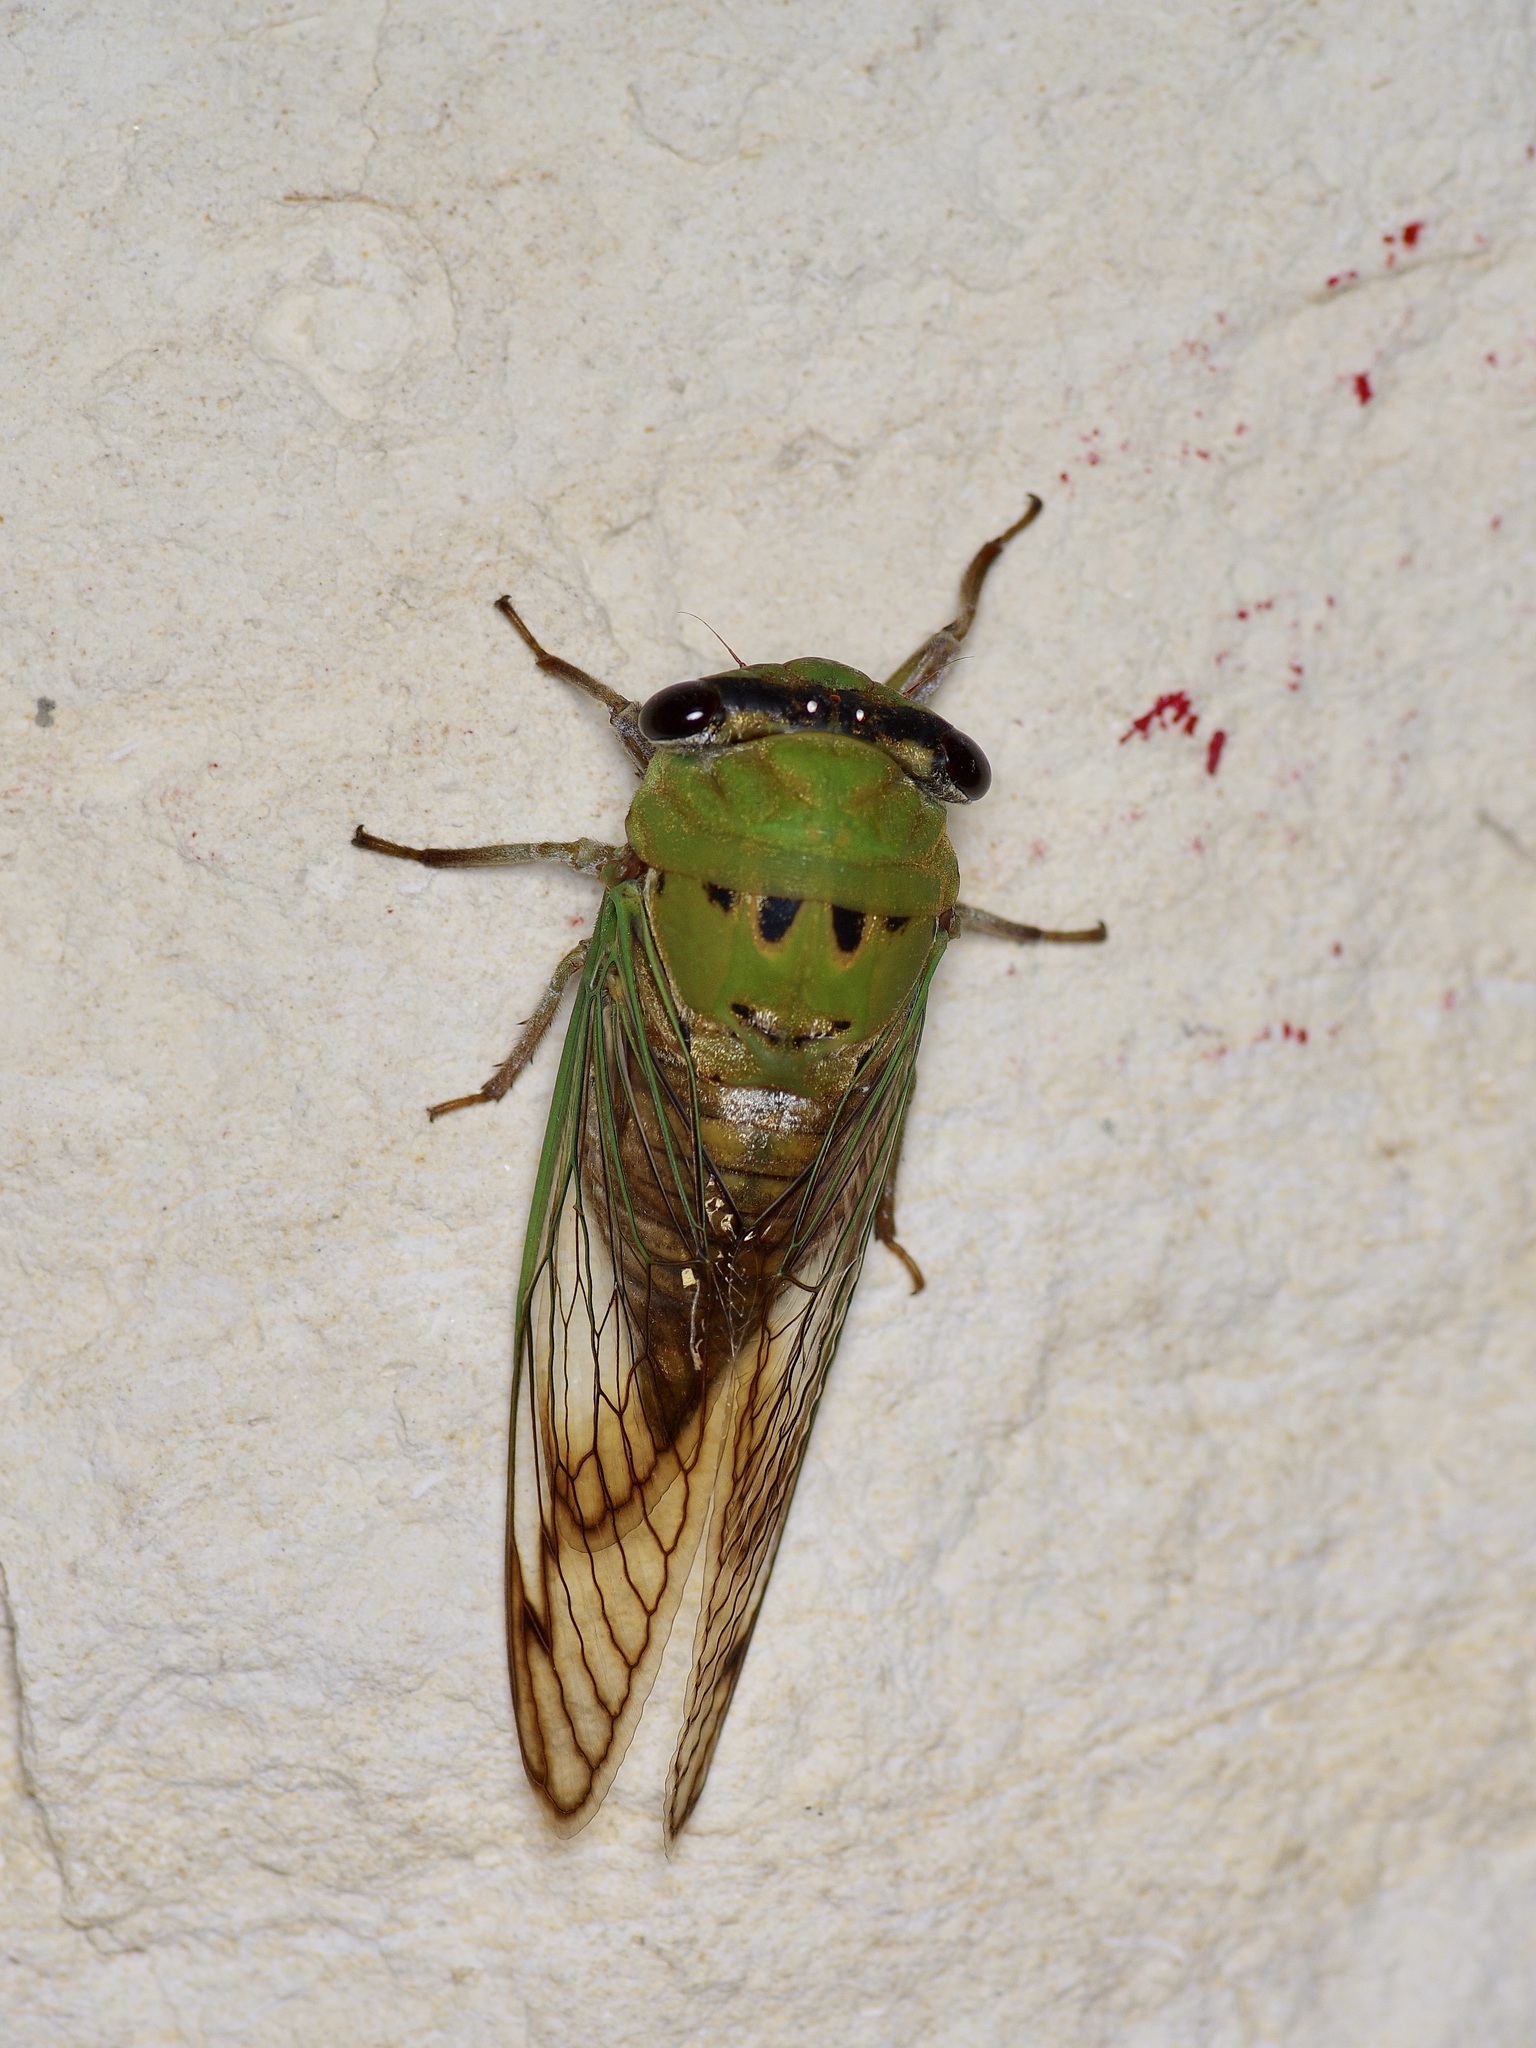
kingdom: Animalia
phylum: Arthropoda
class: Insecta
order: Hemiptera
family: Cicadidae
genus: Neotibicen
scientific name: Neotibicen superbus
